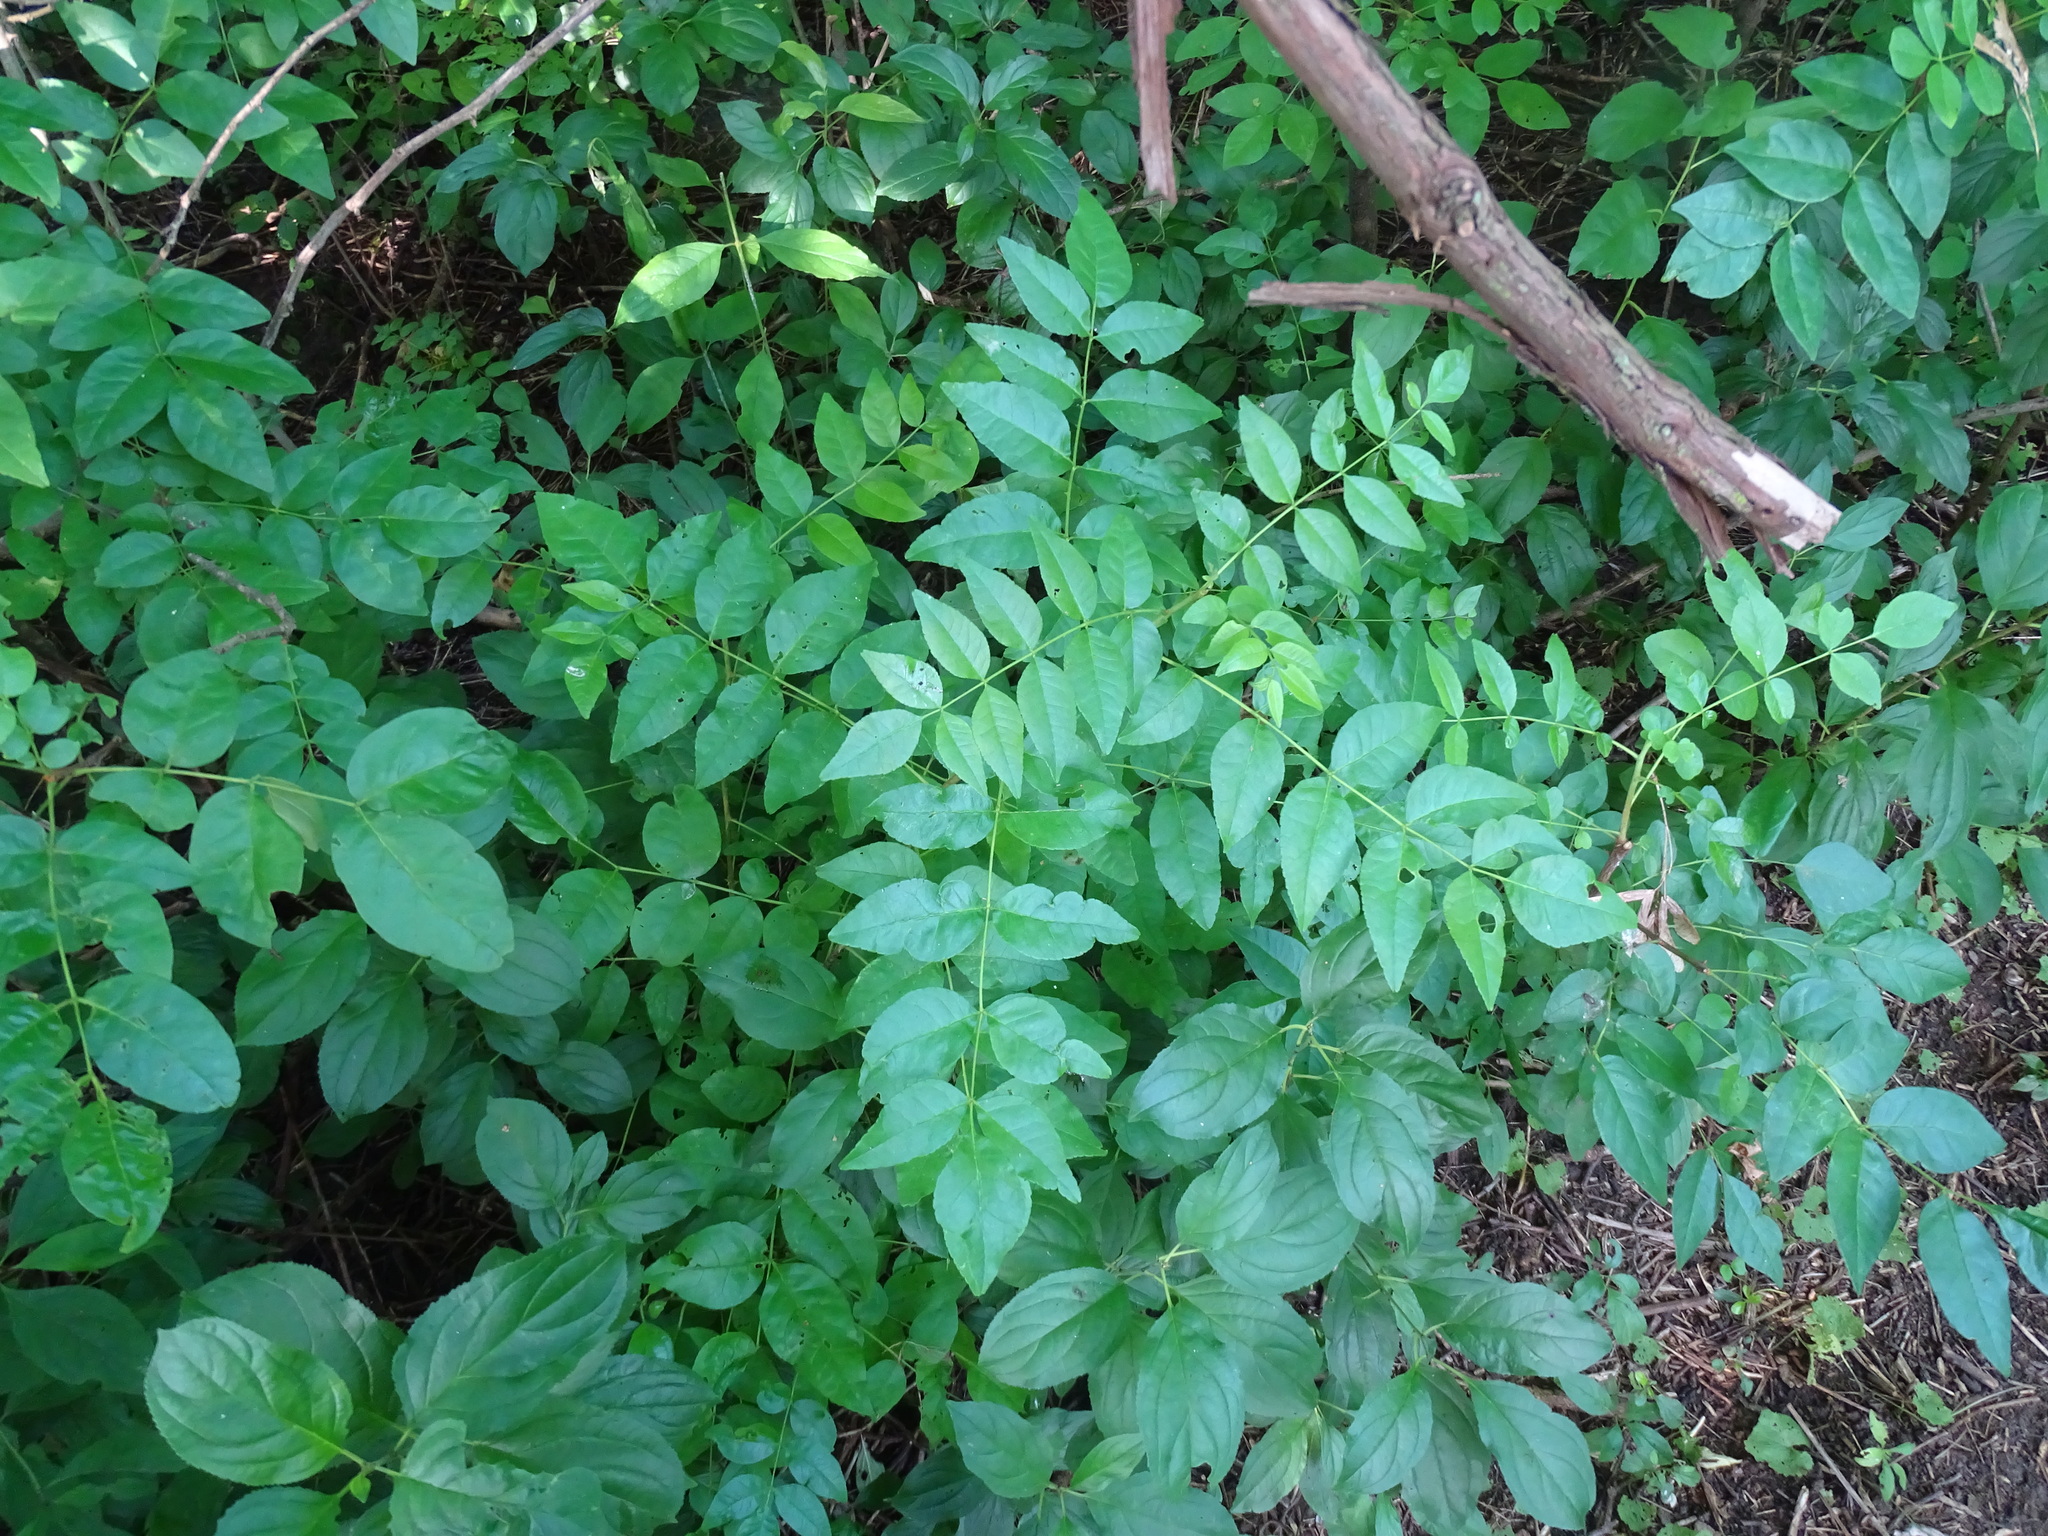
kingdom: Plantae
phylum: Tracheophyta
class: Magnoliopsida
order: Sapindales
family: Rutaceae
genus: Zanthoxylum
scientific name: Zanthoxylum americanum
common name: Northern prickly-ash
